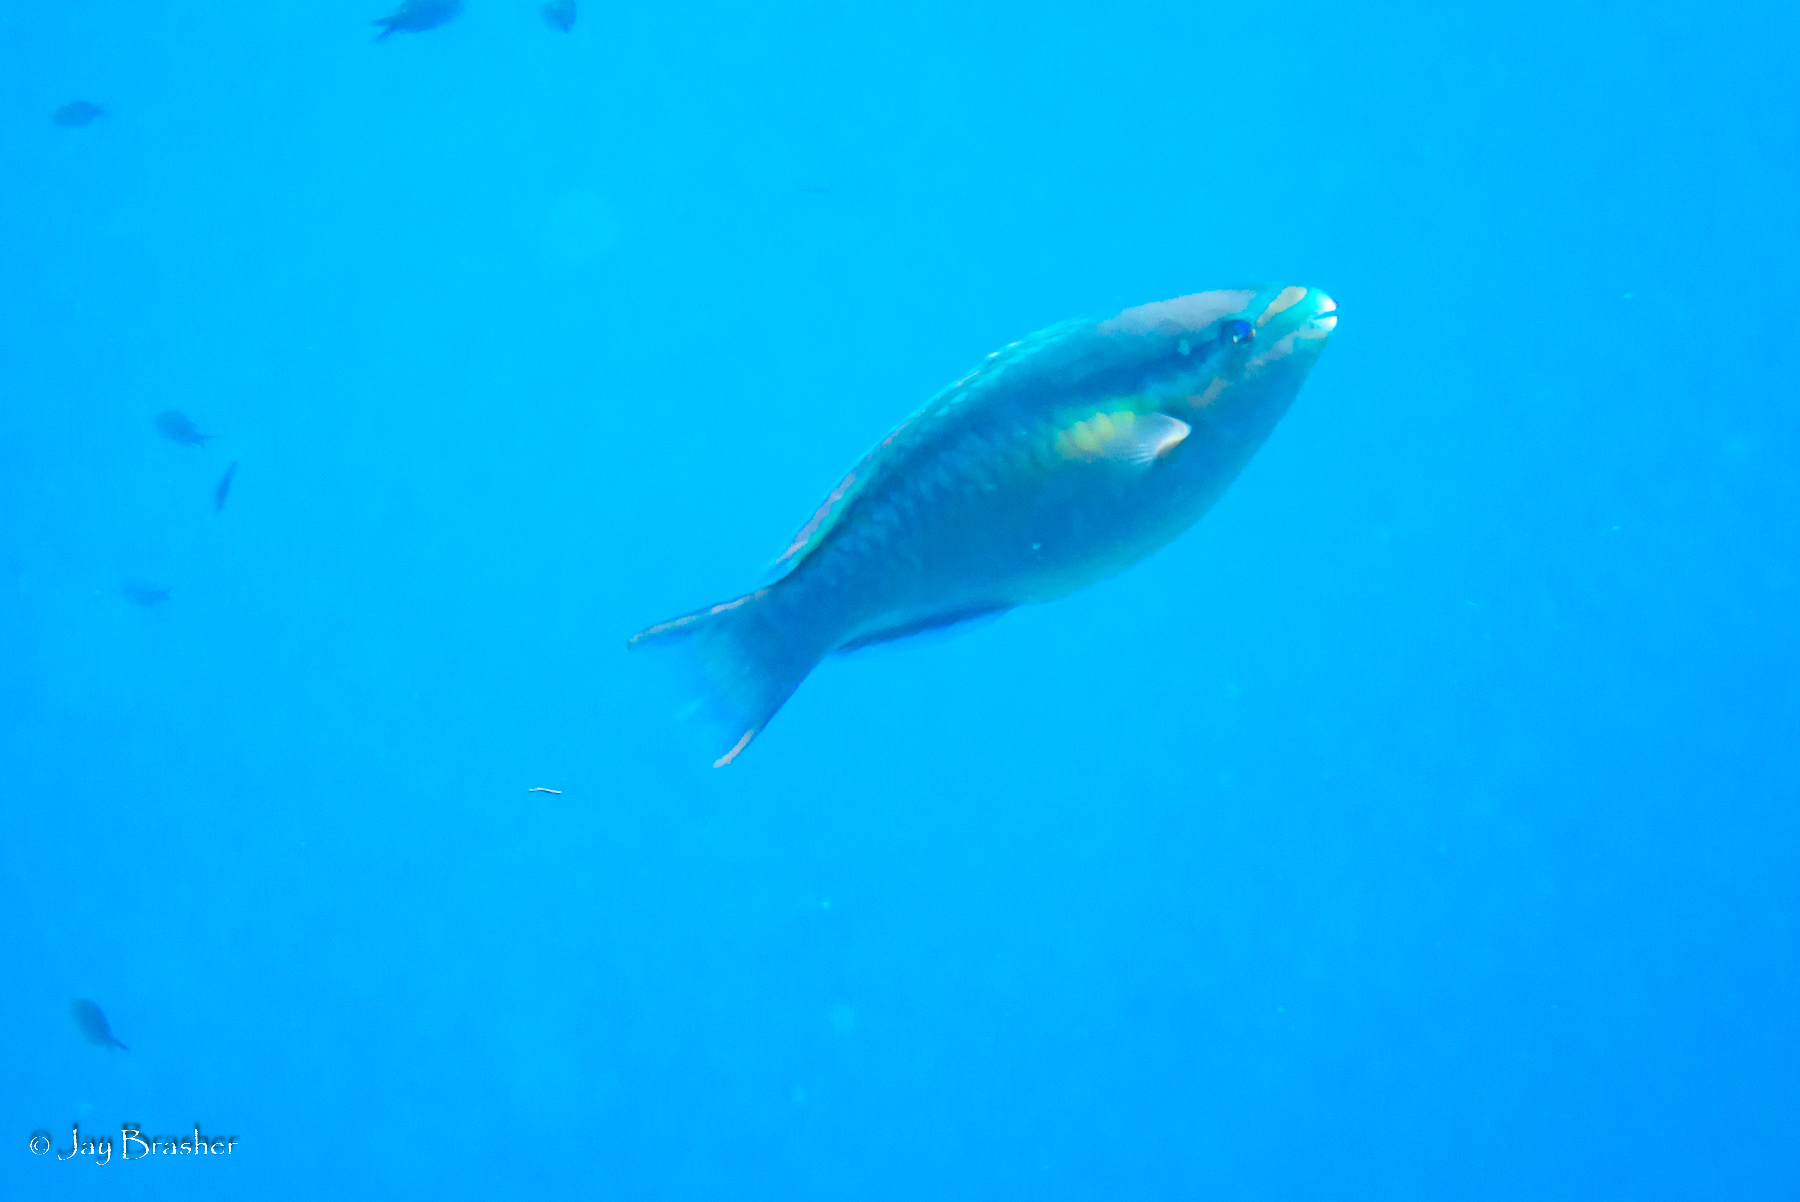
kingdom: Animalia
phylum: Chordata
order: Perciformes
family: Scaridae
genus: Scarus
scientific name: Scarus taeniopterus
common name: Princess parrotfish
